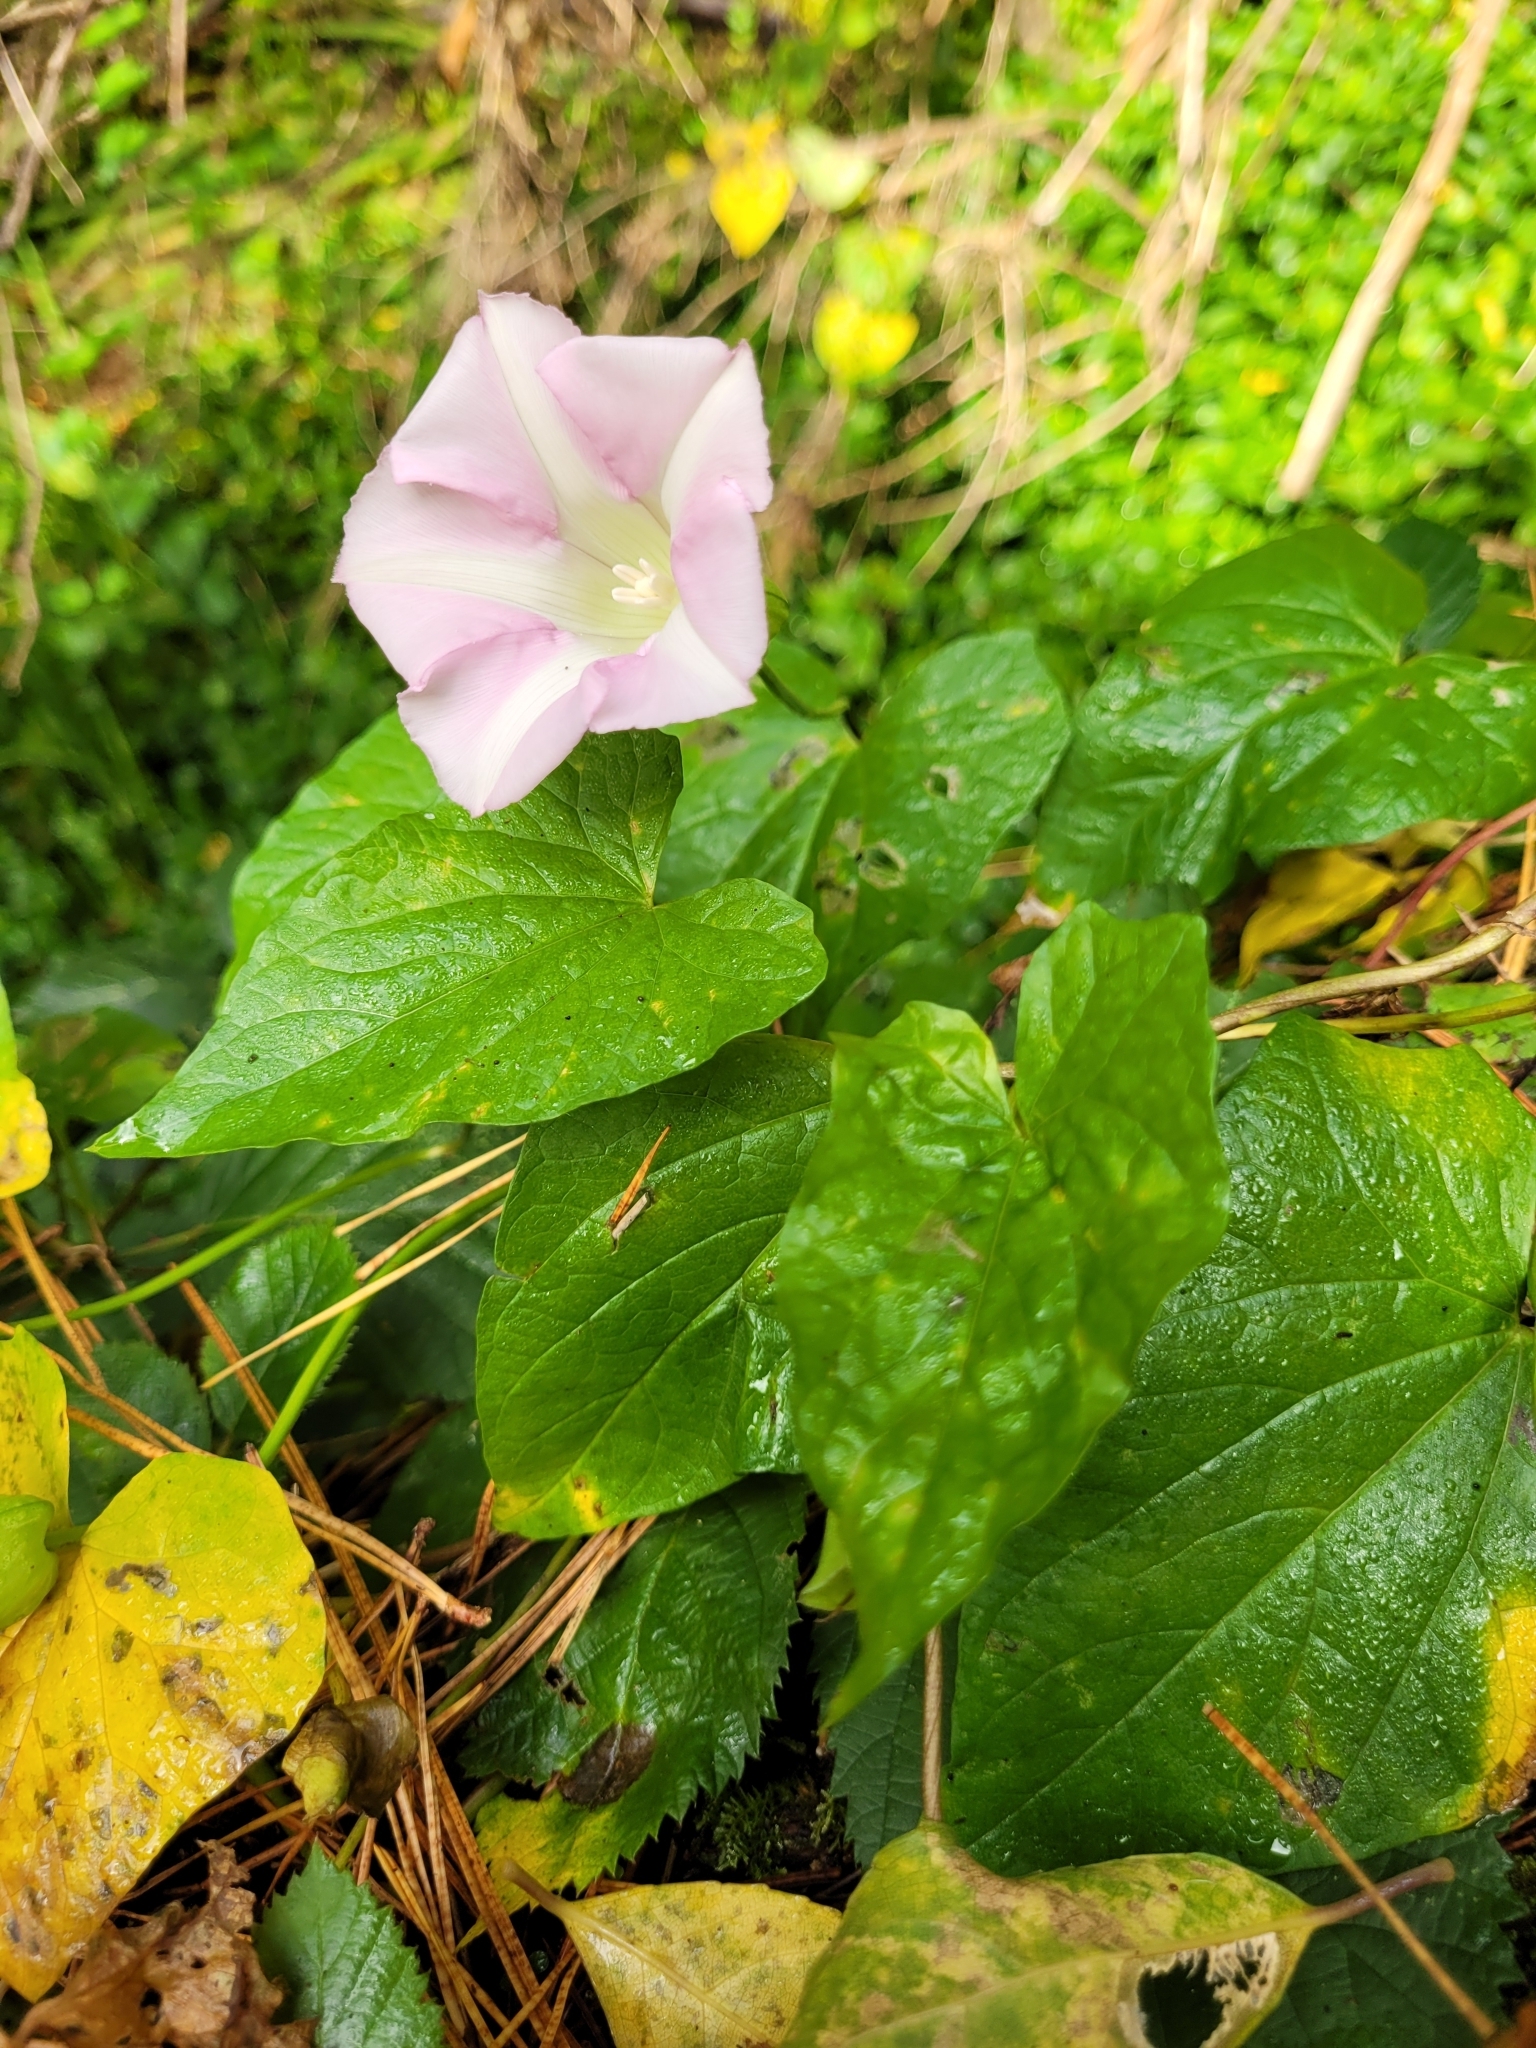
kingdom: Plantae
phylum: Tracheophyta
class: Magnoliopsida
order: Solanales
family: Convolvulaceae
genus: Calystegia
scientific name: Calystegia sepium
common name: Hedge bindweed
